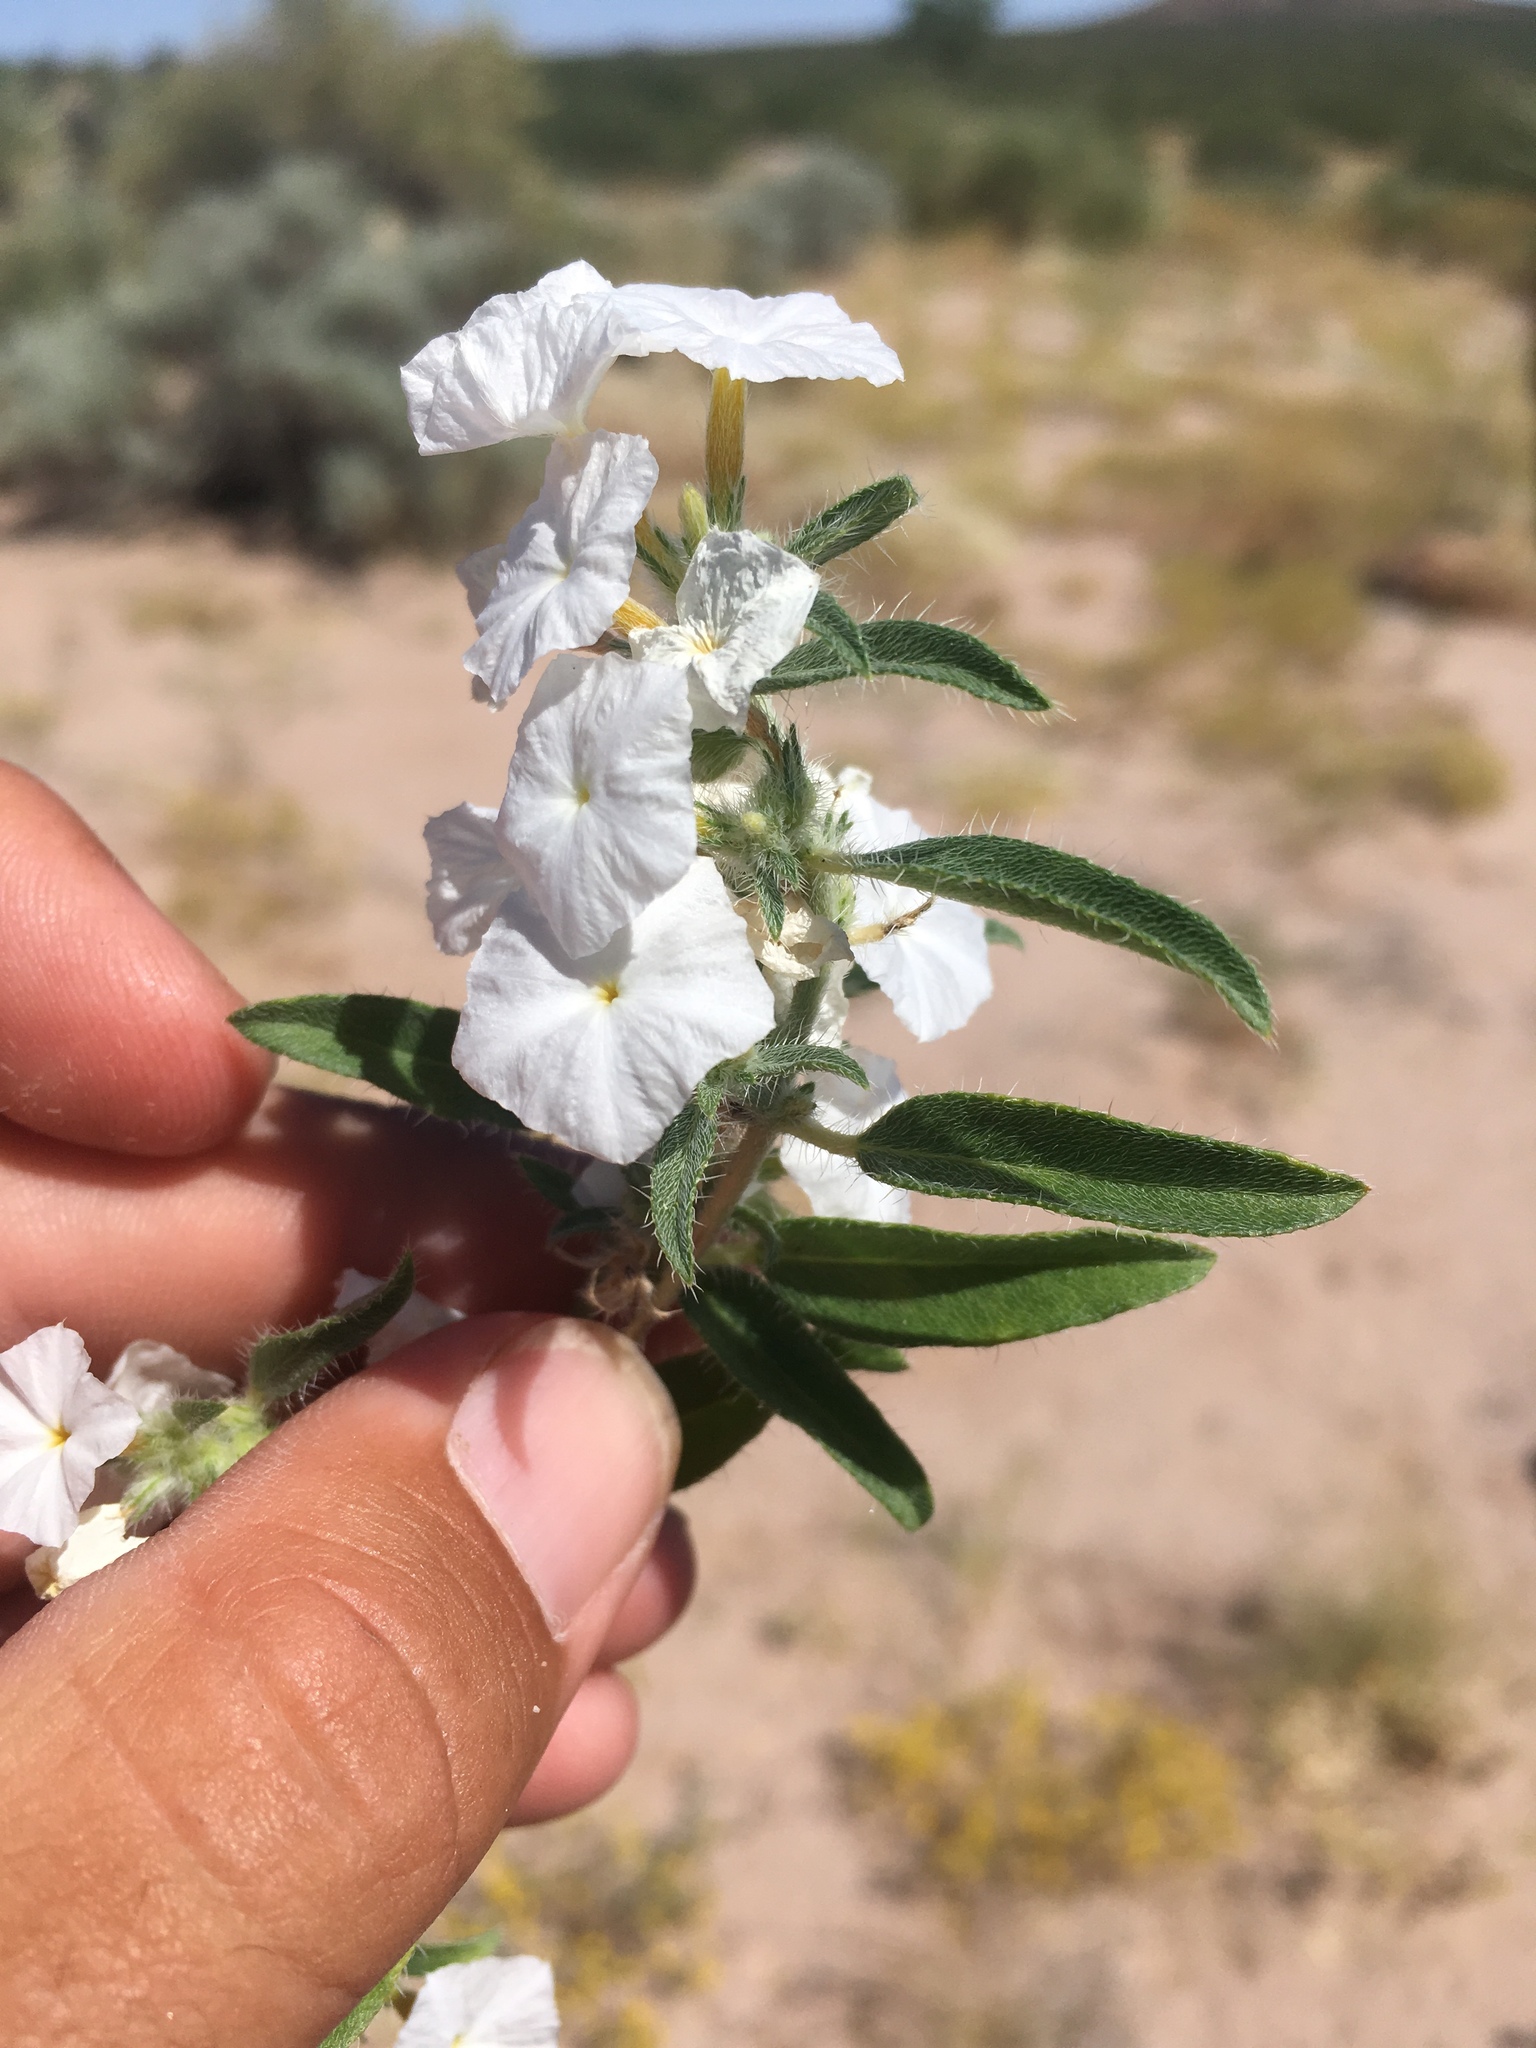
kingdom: Plantae
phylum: Tracheophyta
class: Magnoliopsida
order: Boraginales
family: Heliotropiaceae
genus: Euploca
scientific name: Euploca convolvulacea
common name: Bindweed heliotrope
